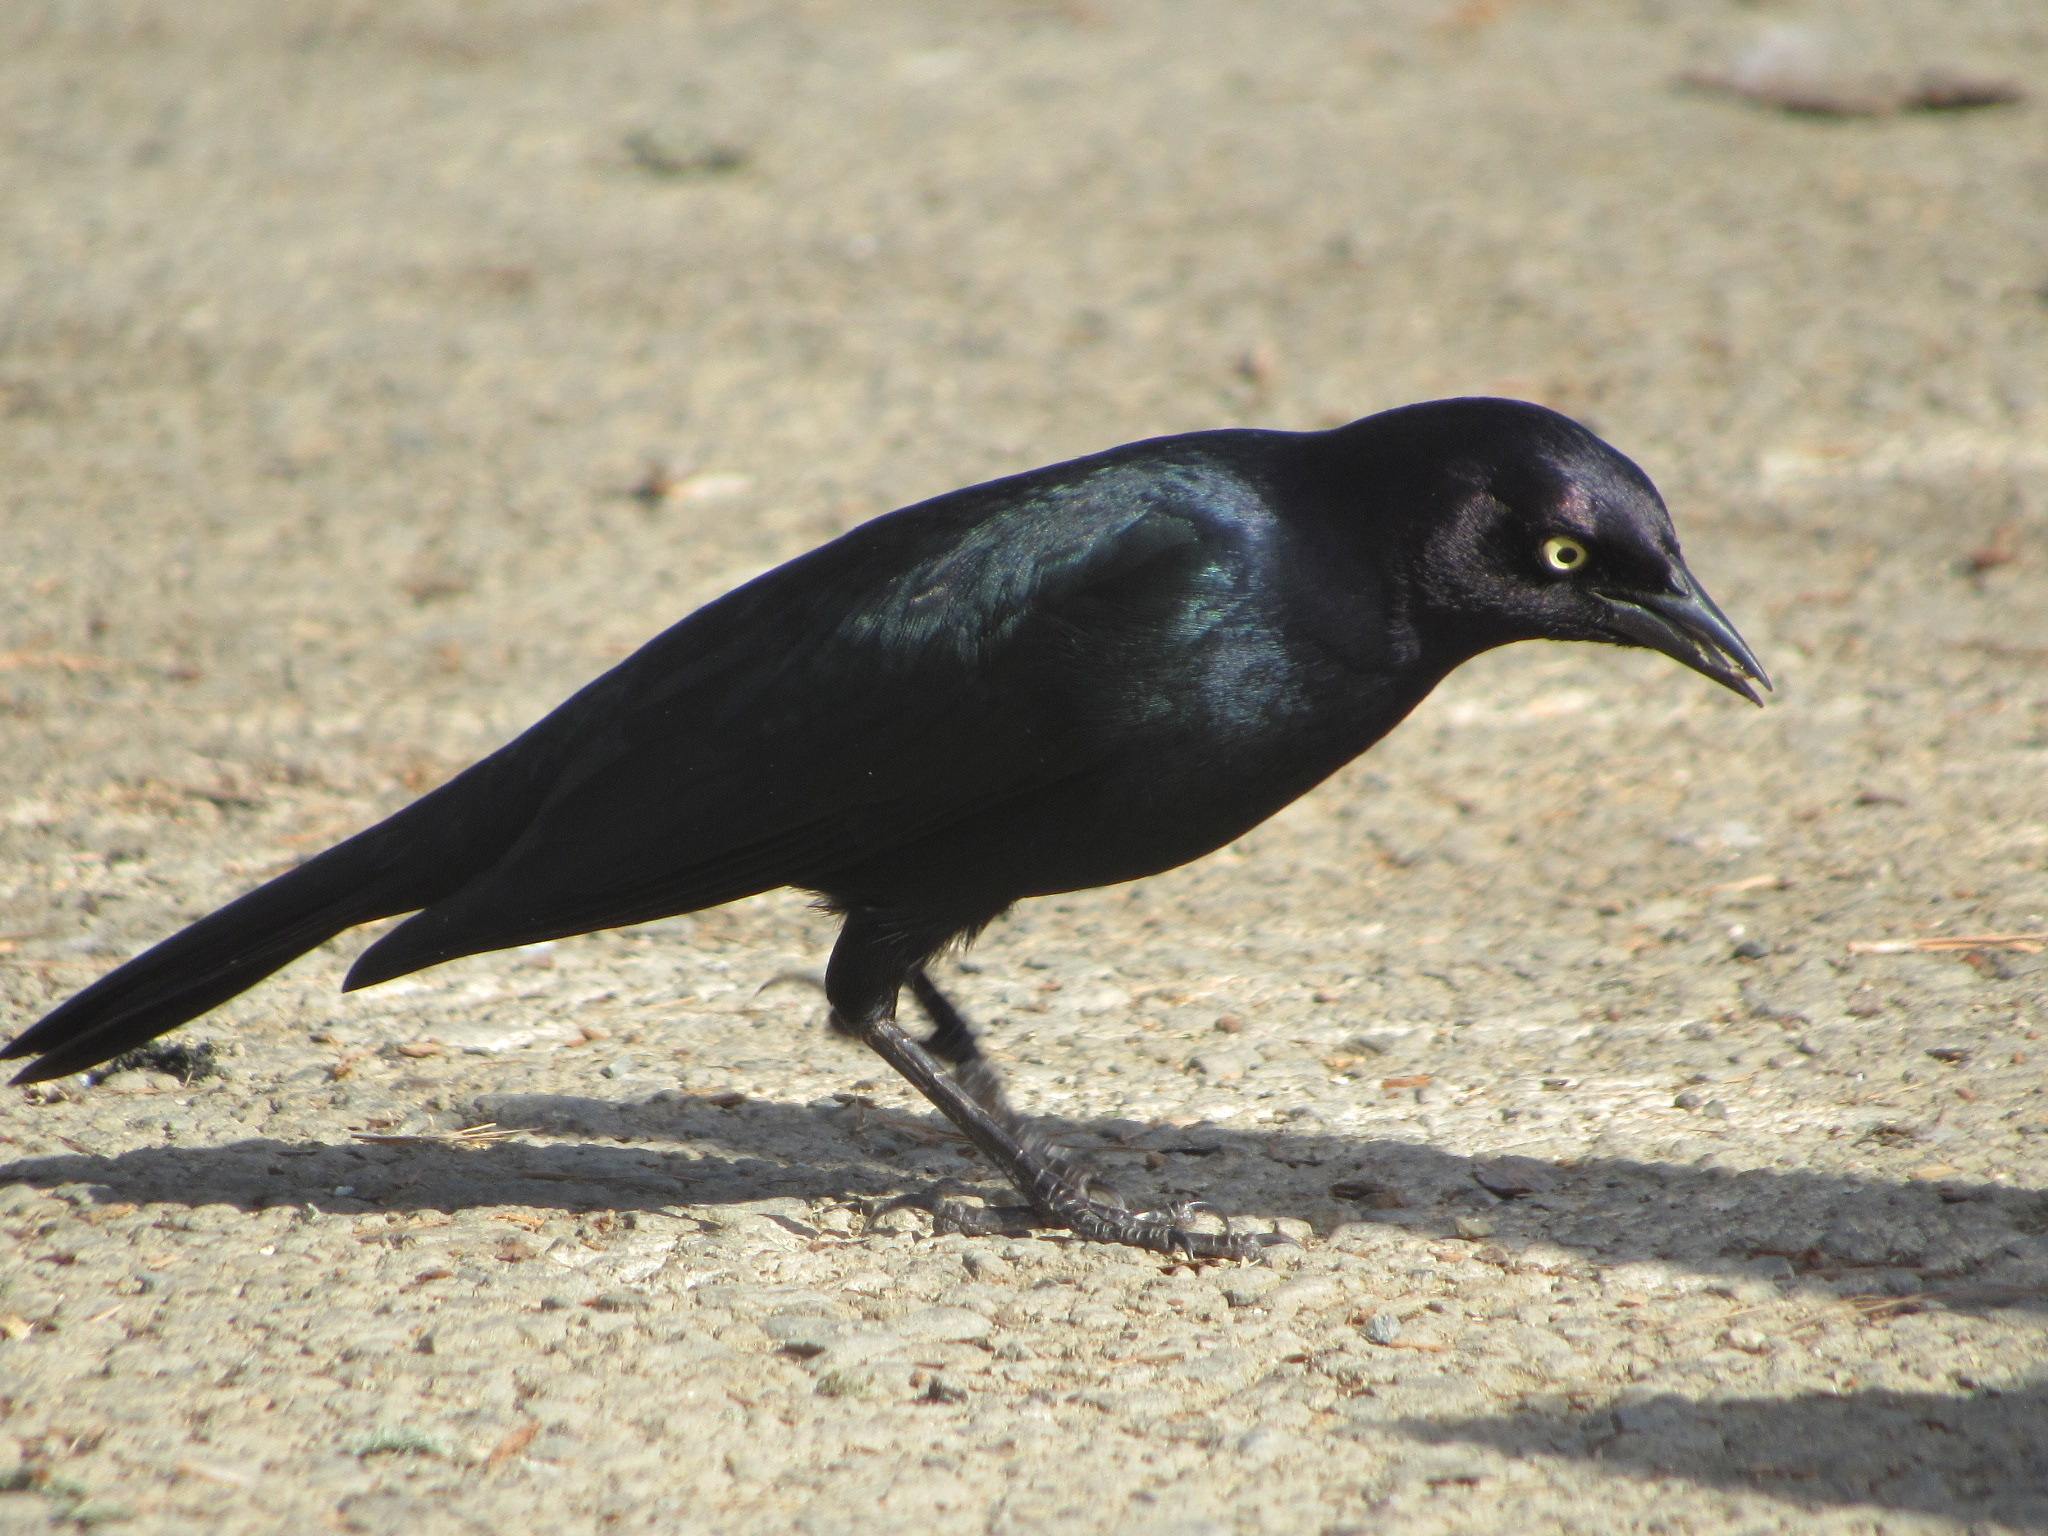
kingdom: Animalia
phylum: Chordata
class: Aves
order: Passeriformes
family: Icteridae
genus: Euphagus
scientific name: Euphagus cyanocephalus
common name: Brewer's blackbird
